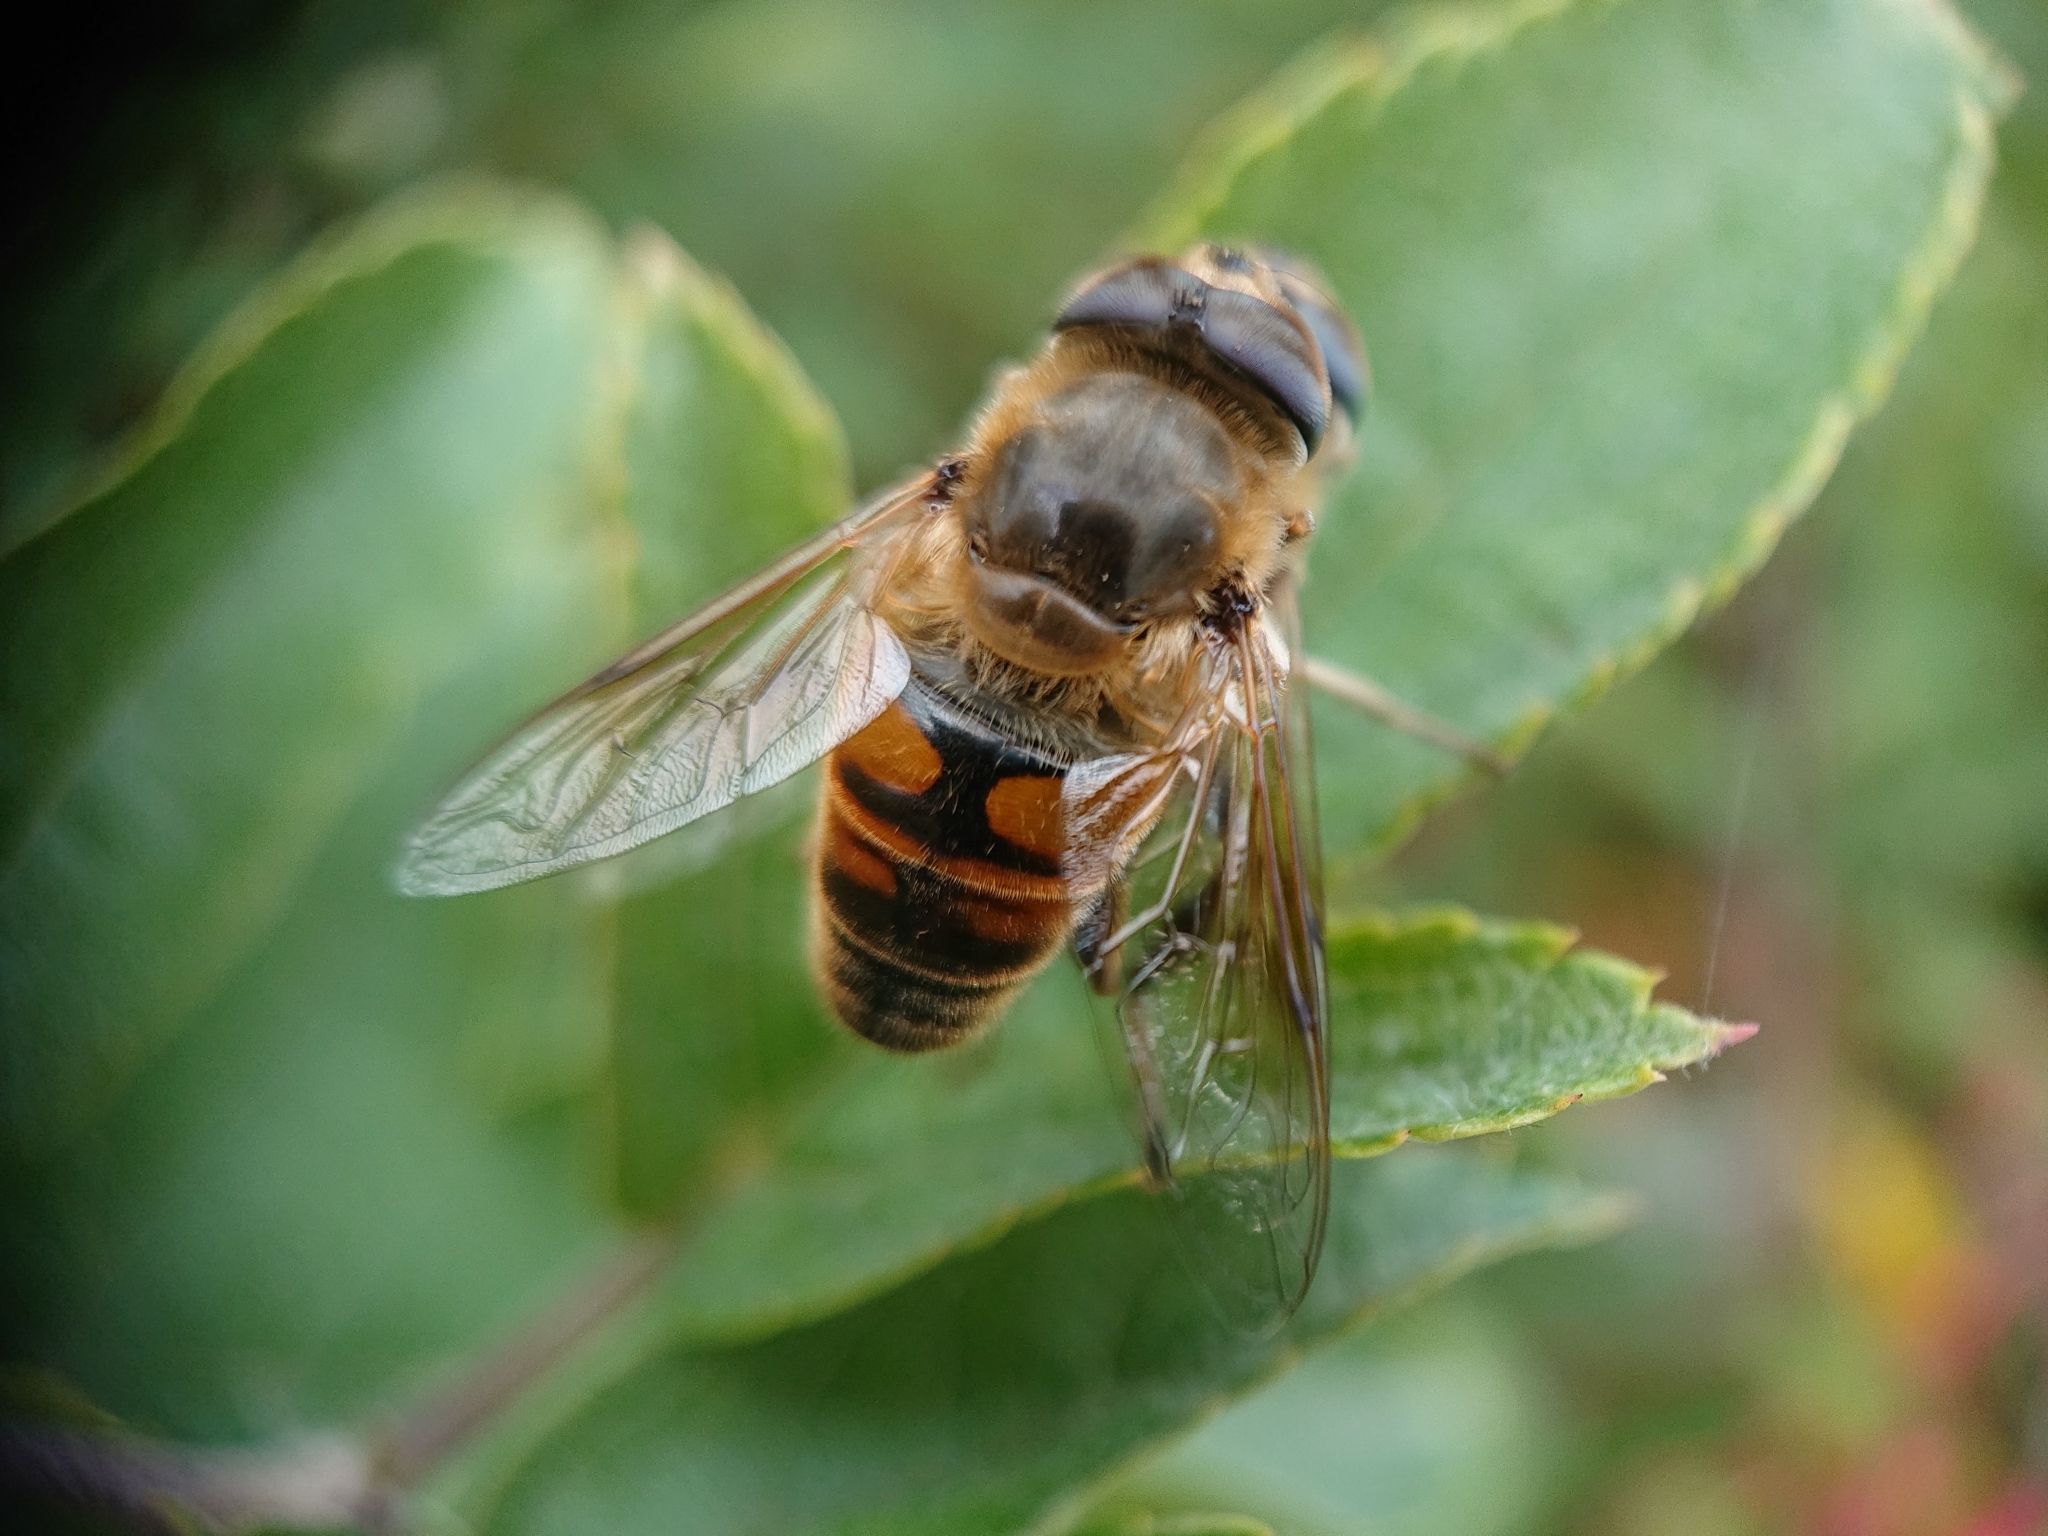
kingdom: Animalia
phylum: Arthropoda
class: Insecta
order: Diptera
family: Syrphidae
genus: Eristalis
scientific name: Eristalis tenax
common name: Drone fly
